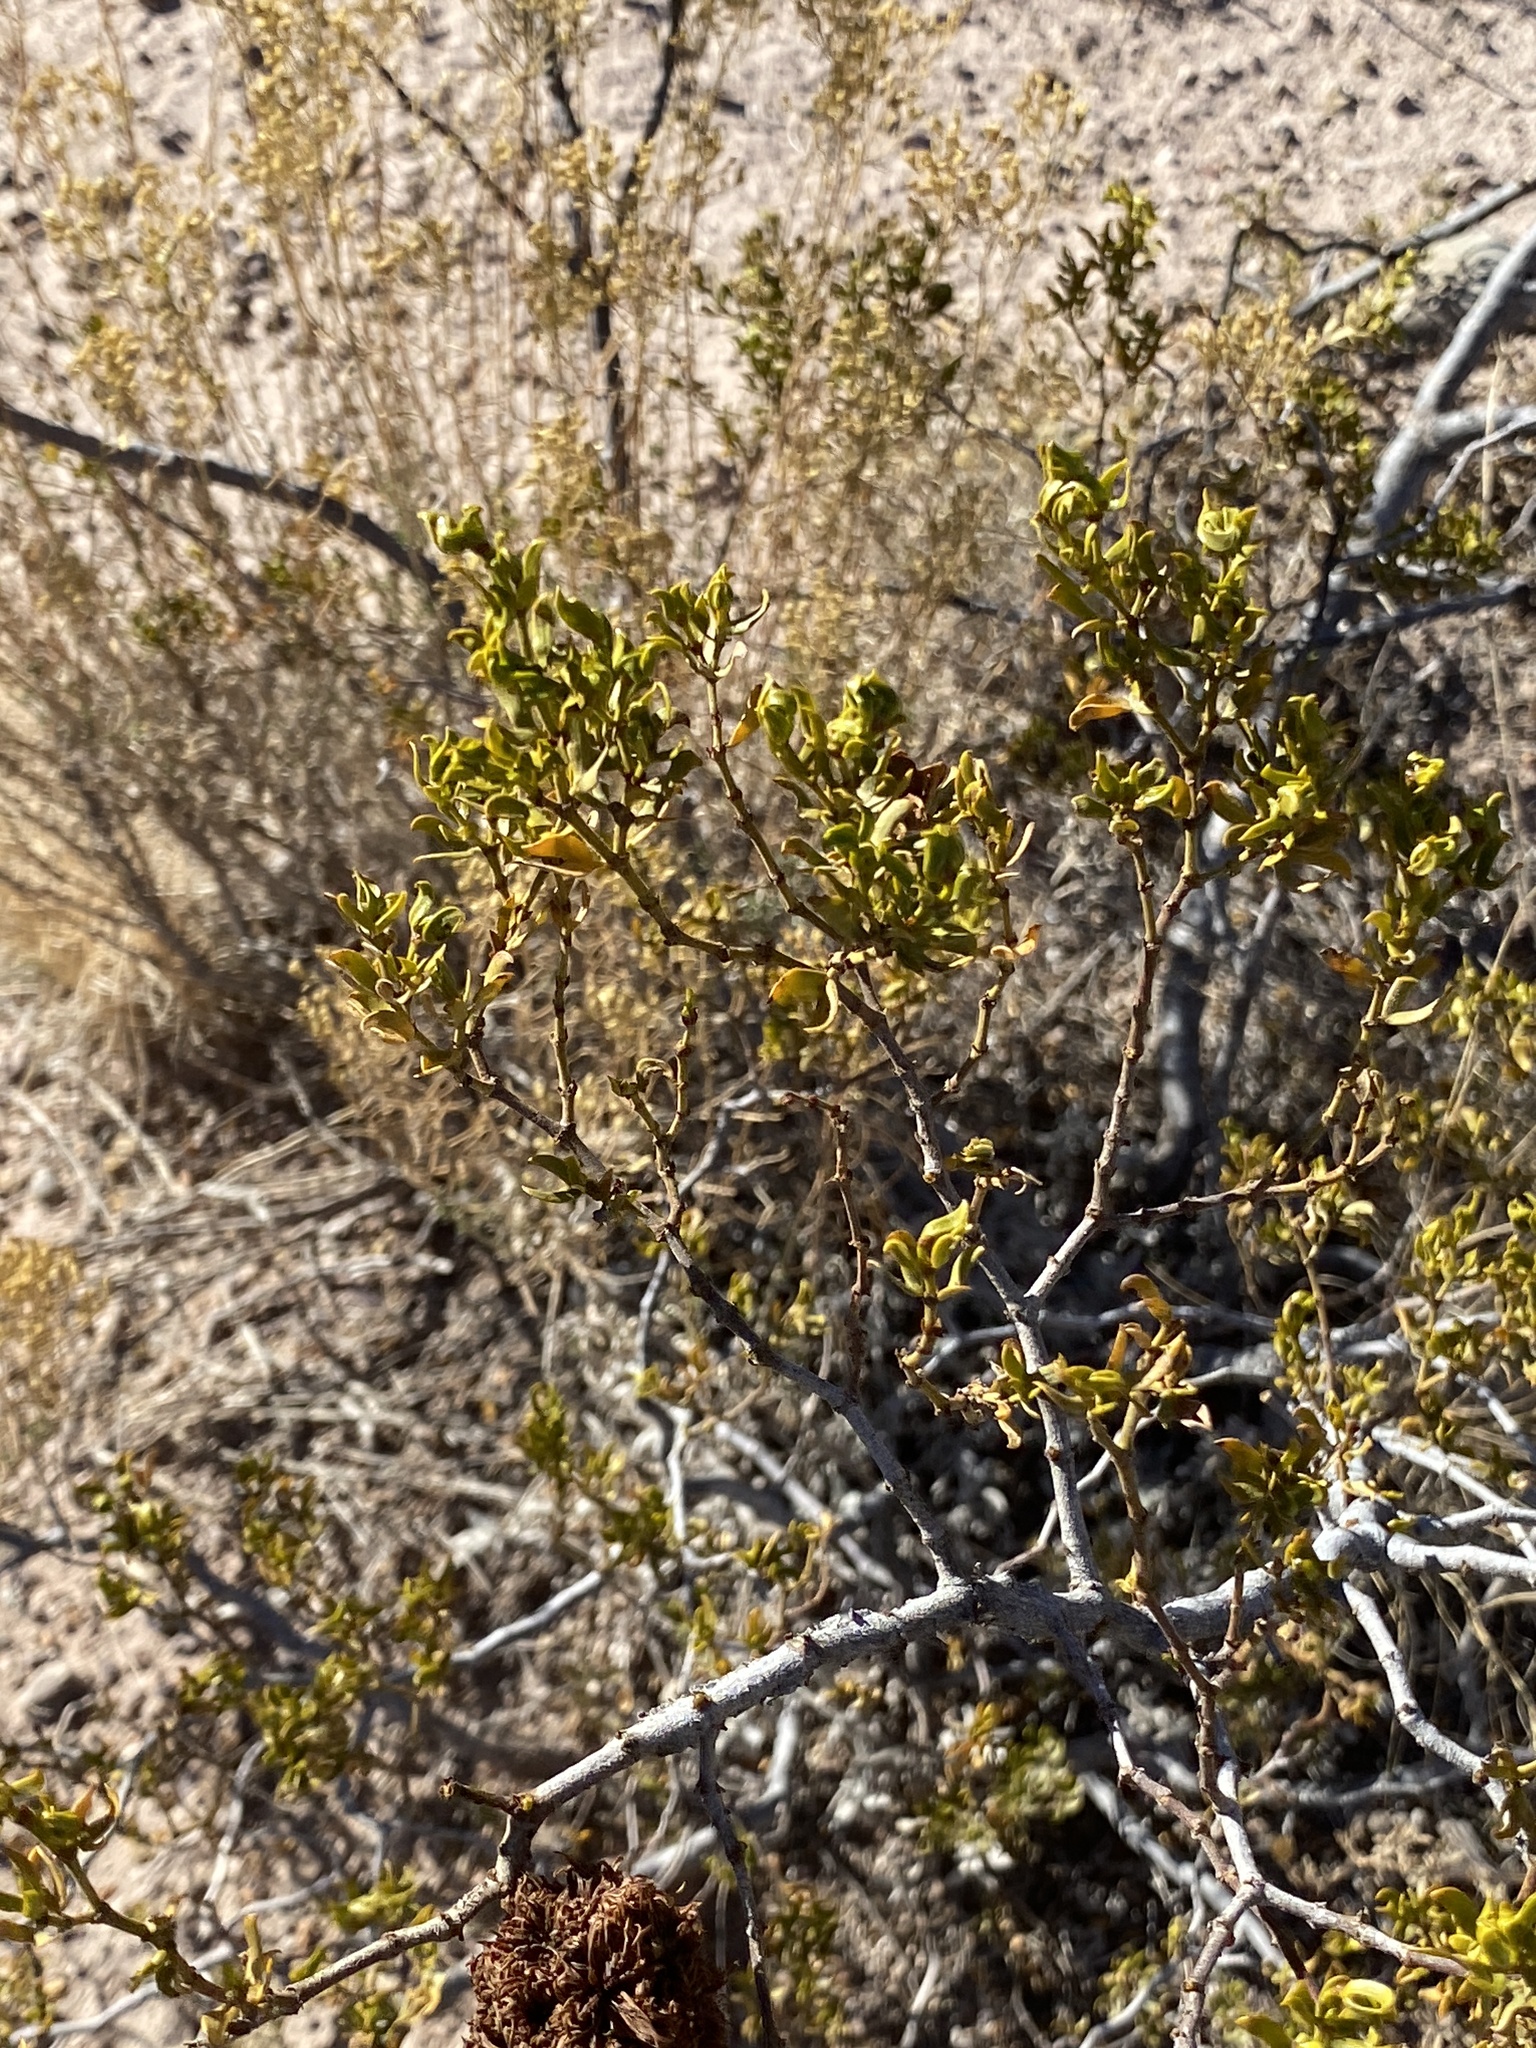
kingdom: Plantae
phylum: Tracheophyta
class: Magnoliopsida
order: Zygophyllales
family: Zygophyllaceae
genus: Larrea
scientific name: Larrea tridentata
